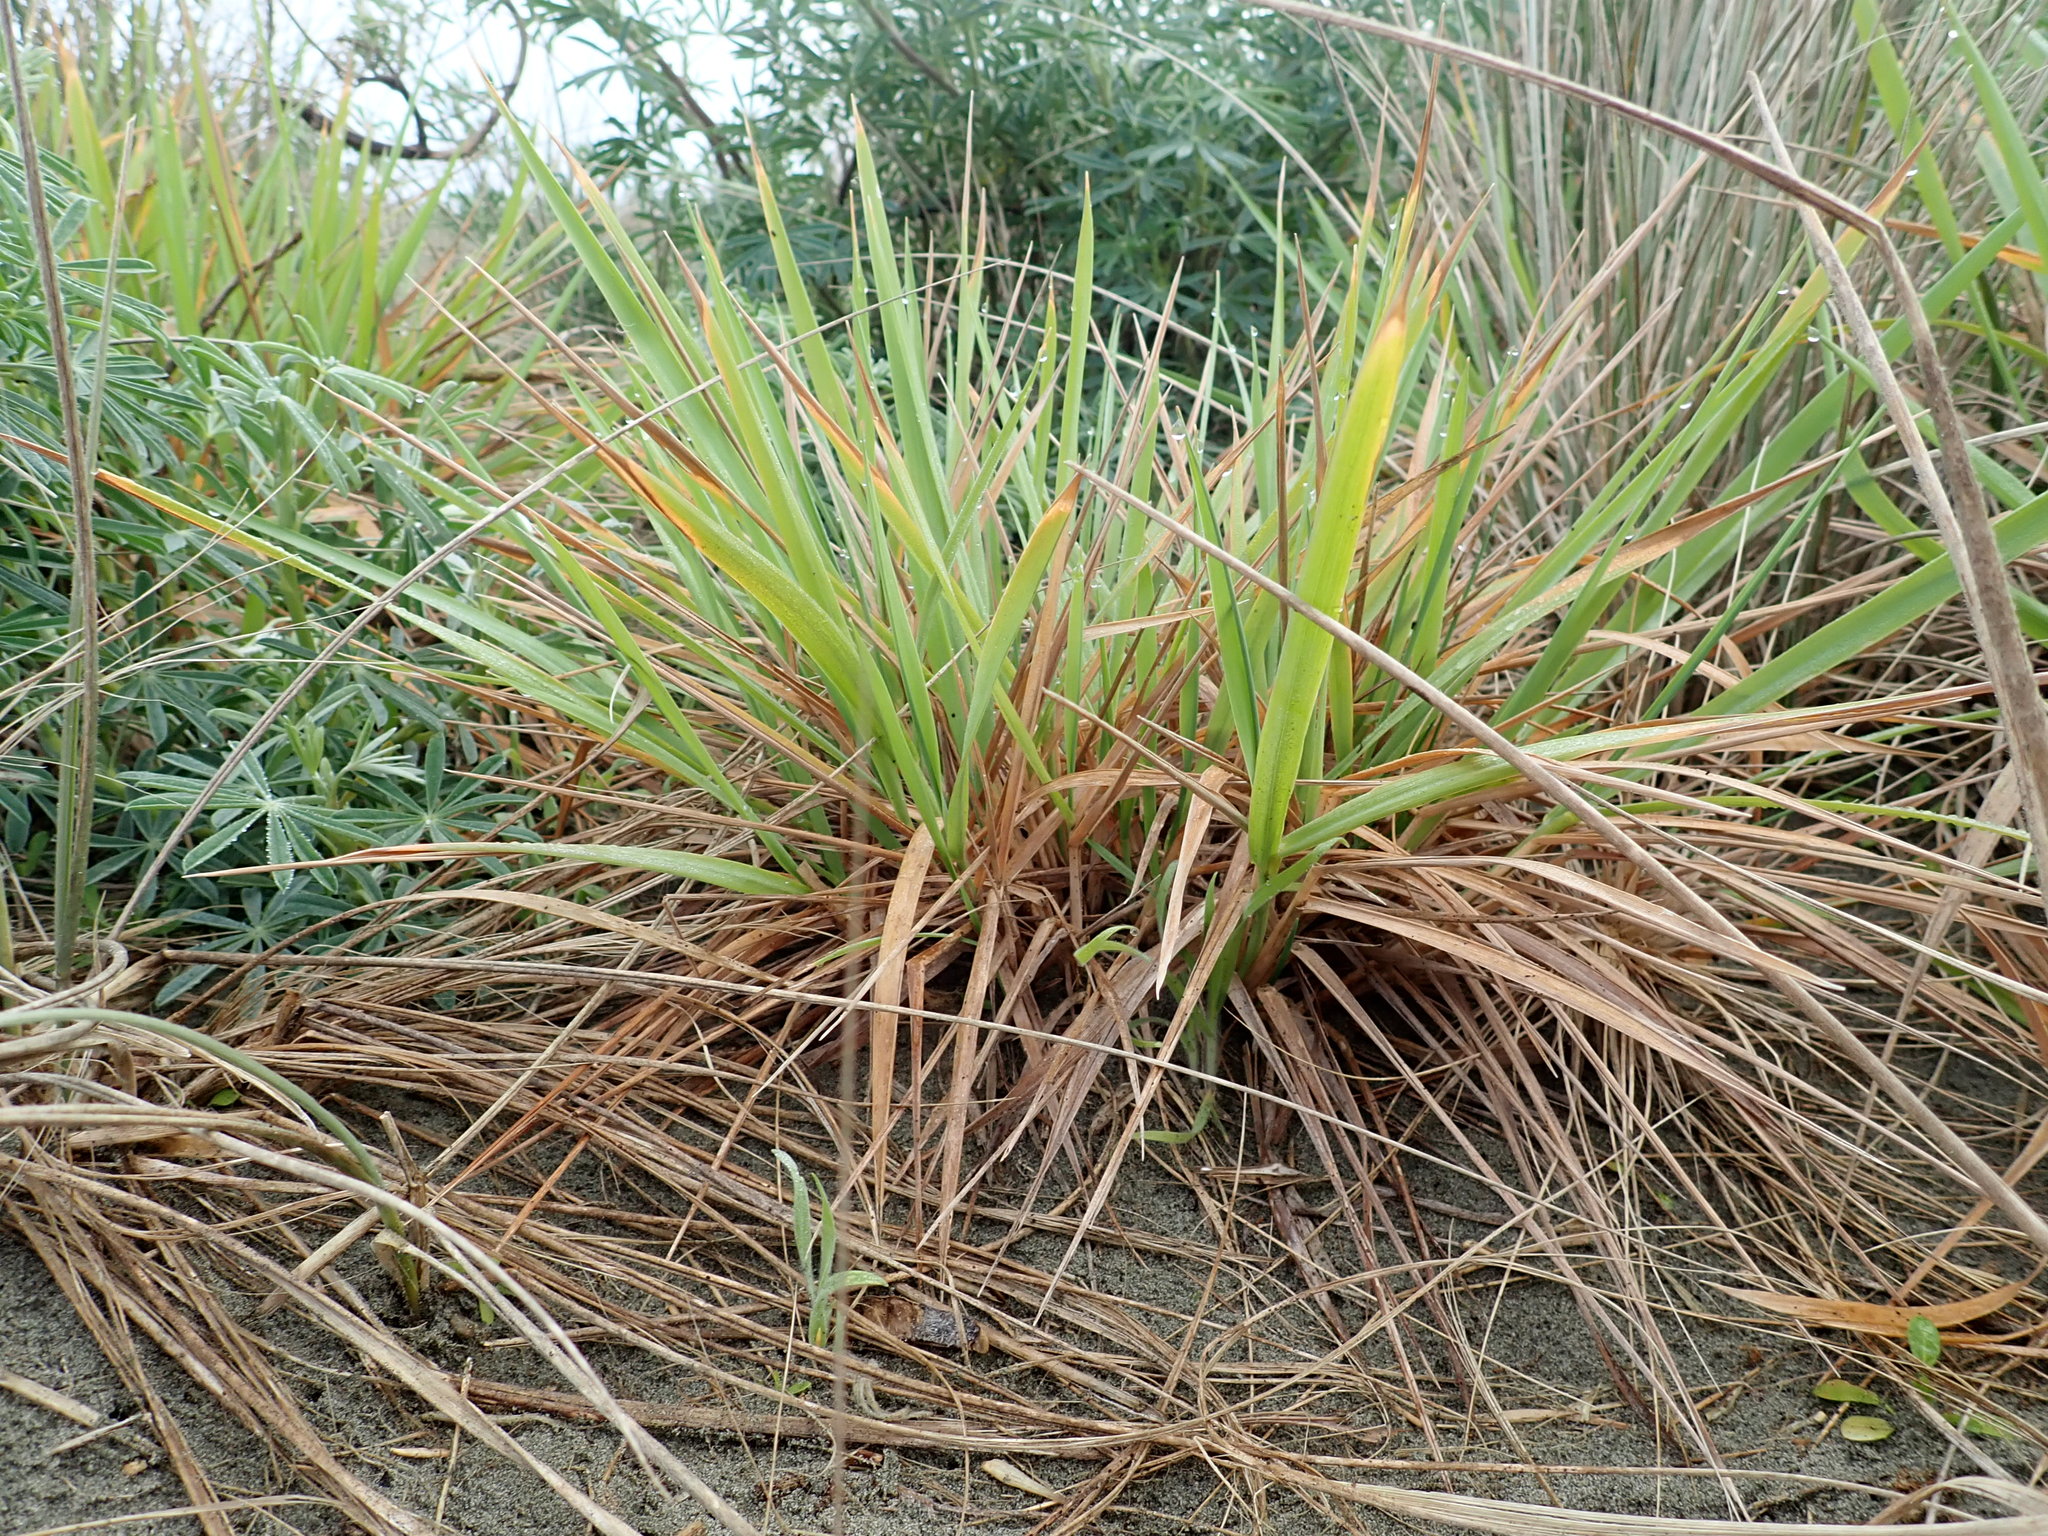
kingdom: Plantae
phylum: Tracheophyta
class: Liliopsida
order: Poales
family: Poaceae
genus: Lachnagrostis
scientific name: Lachnagrostis billardierei
